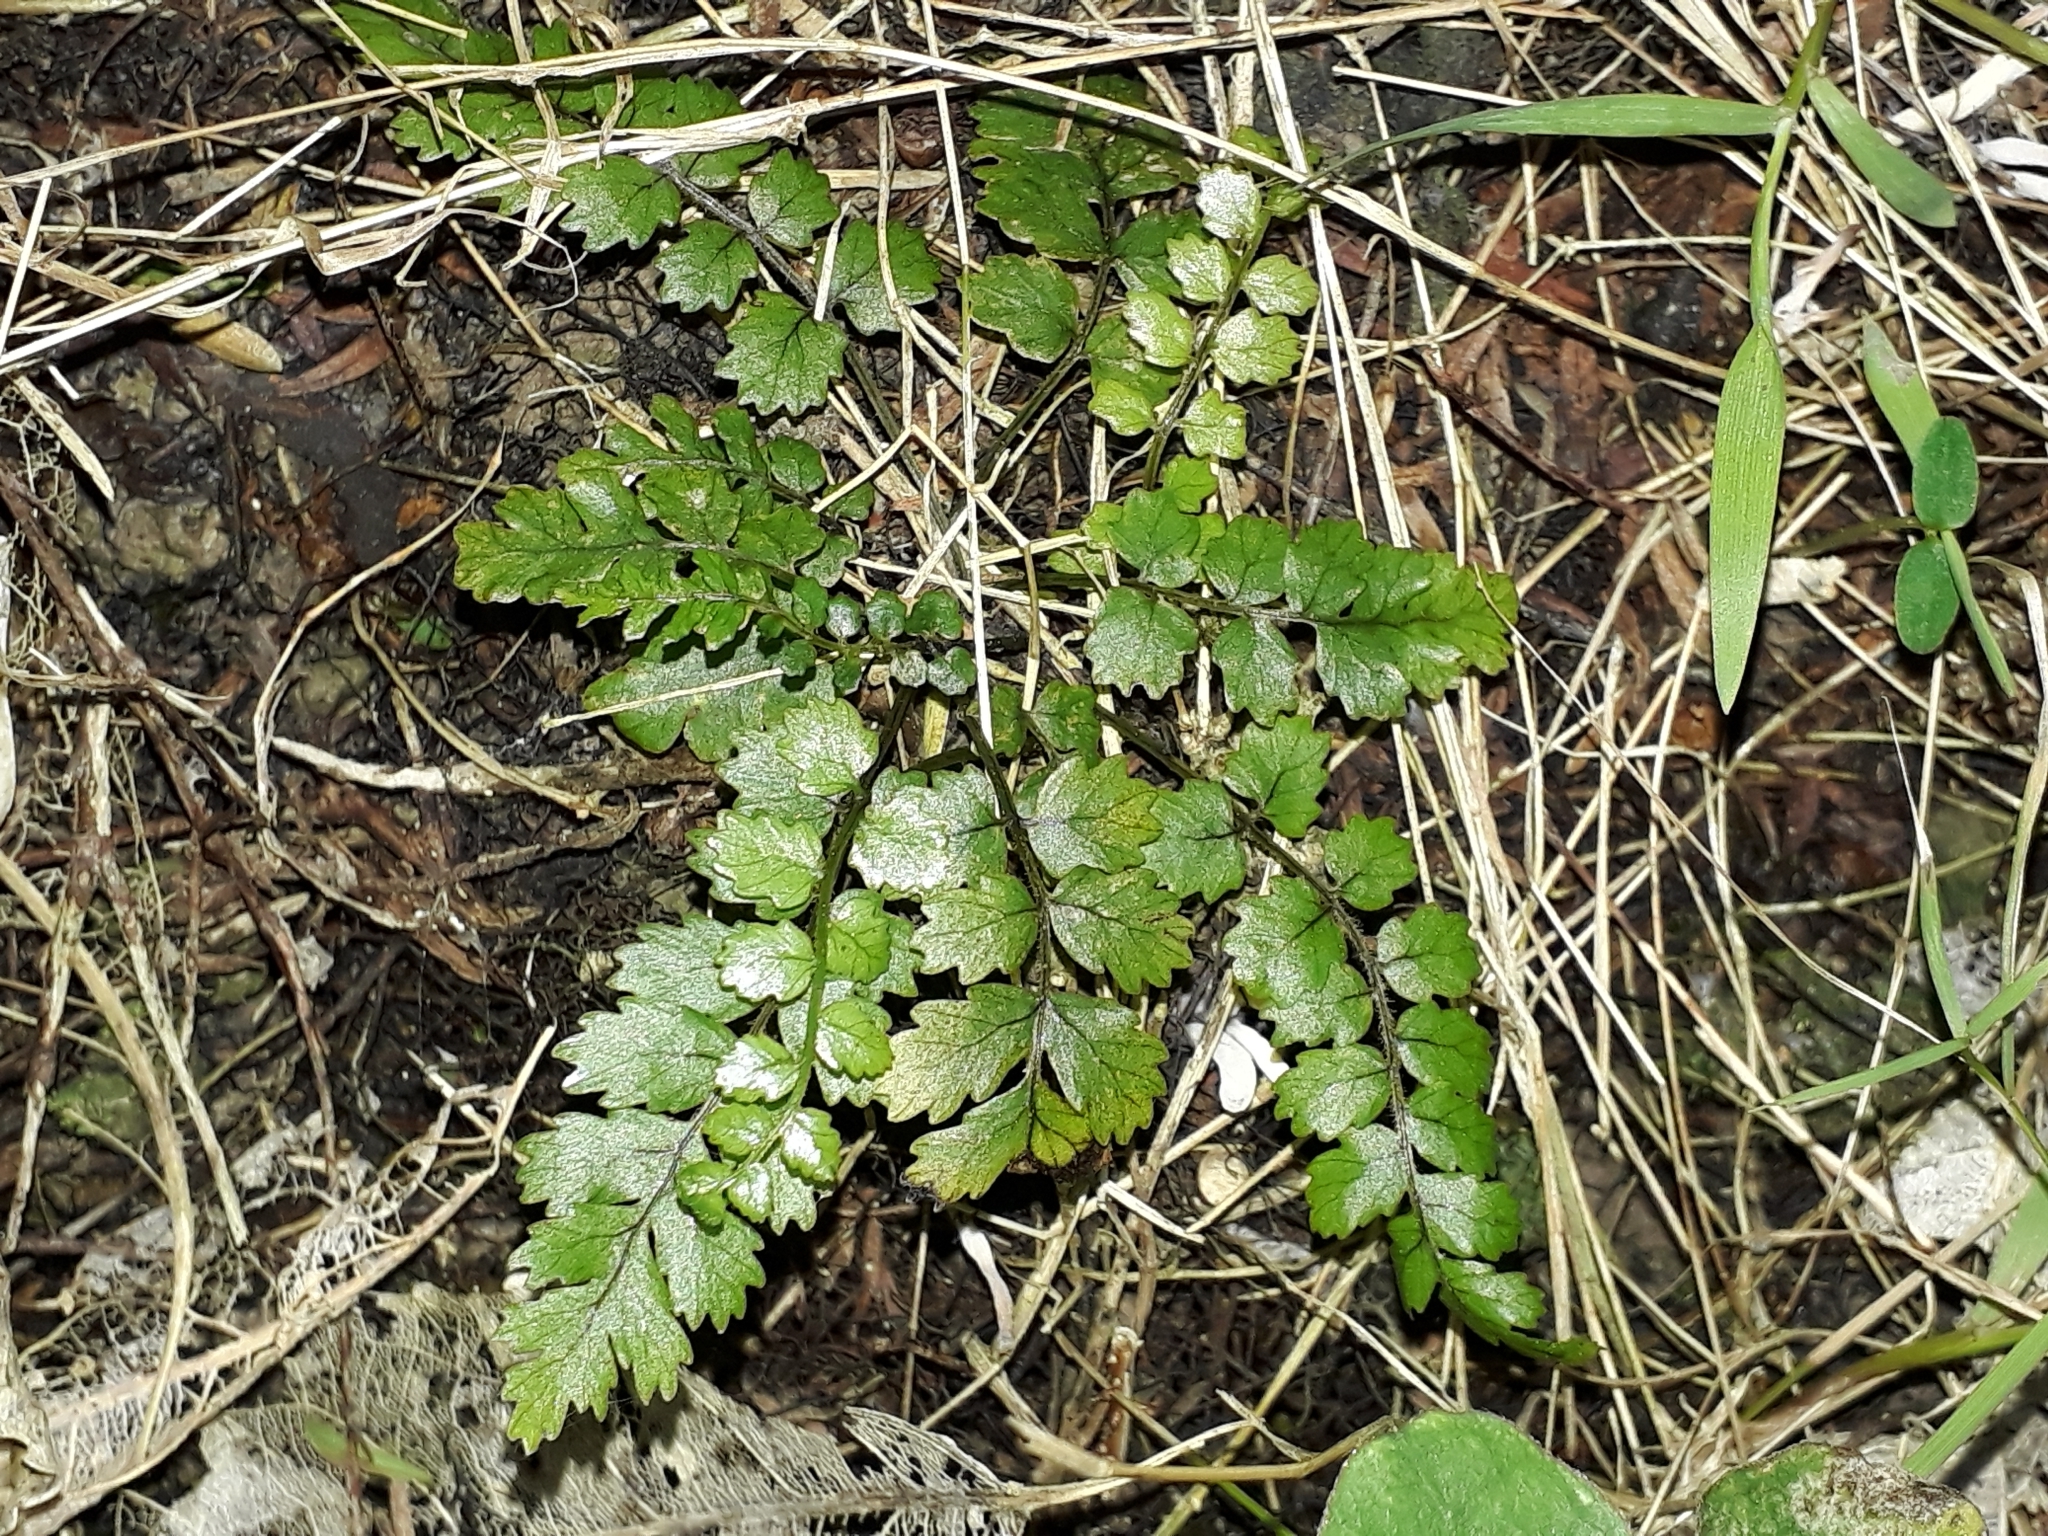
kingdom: Plantae
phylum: Tracheophyta
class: Polypodiopsida
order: Polypodiales
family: Blechnaceae
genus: Icarus
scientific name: Icarus filiformis
